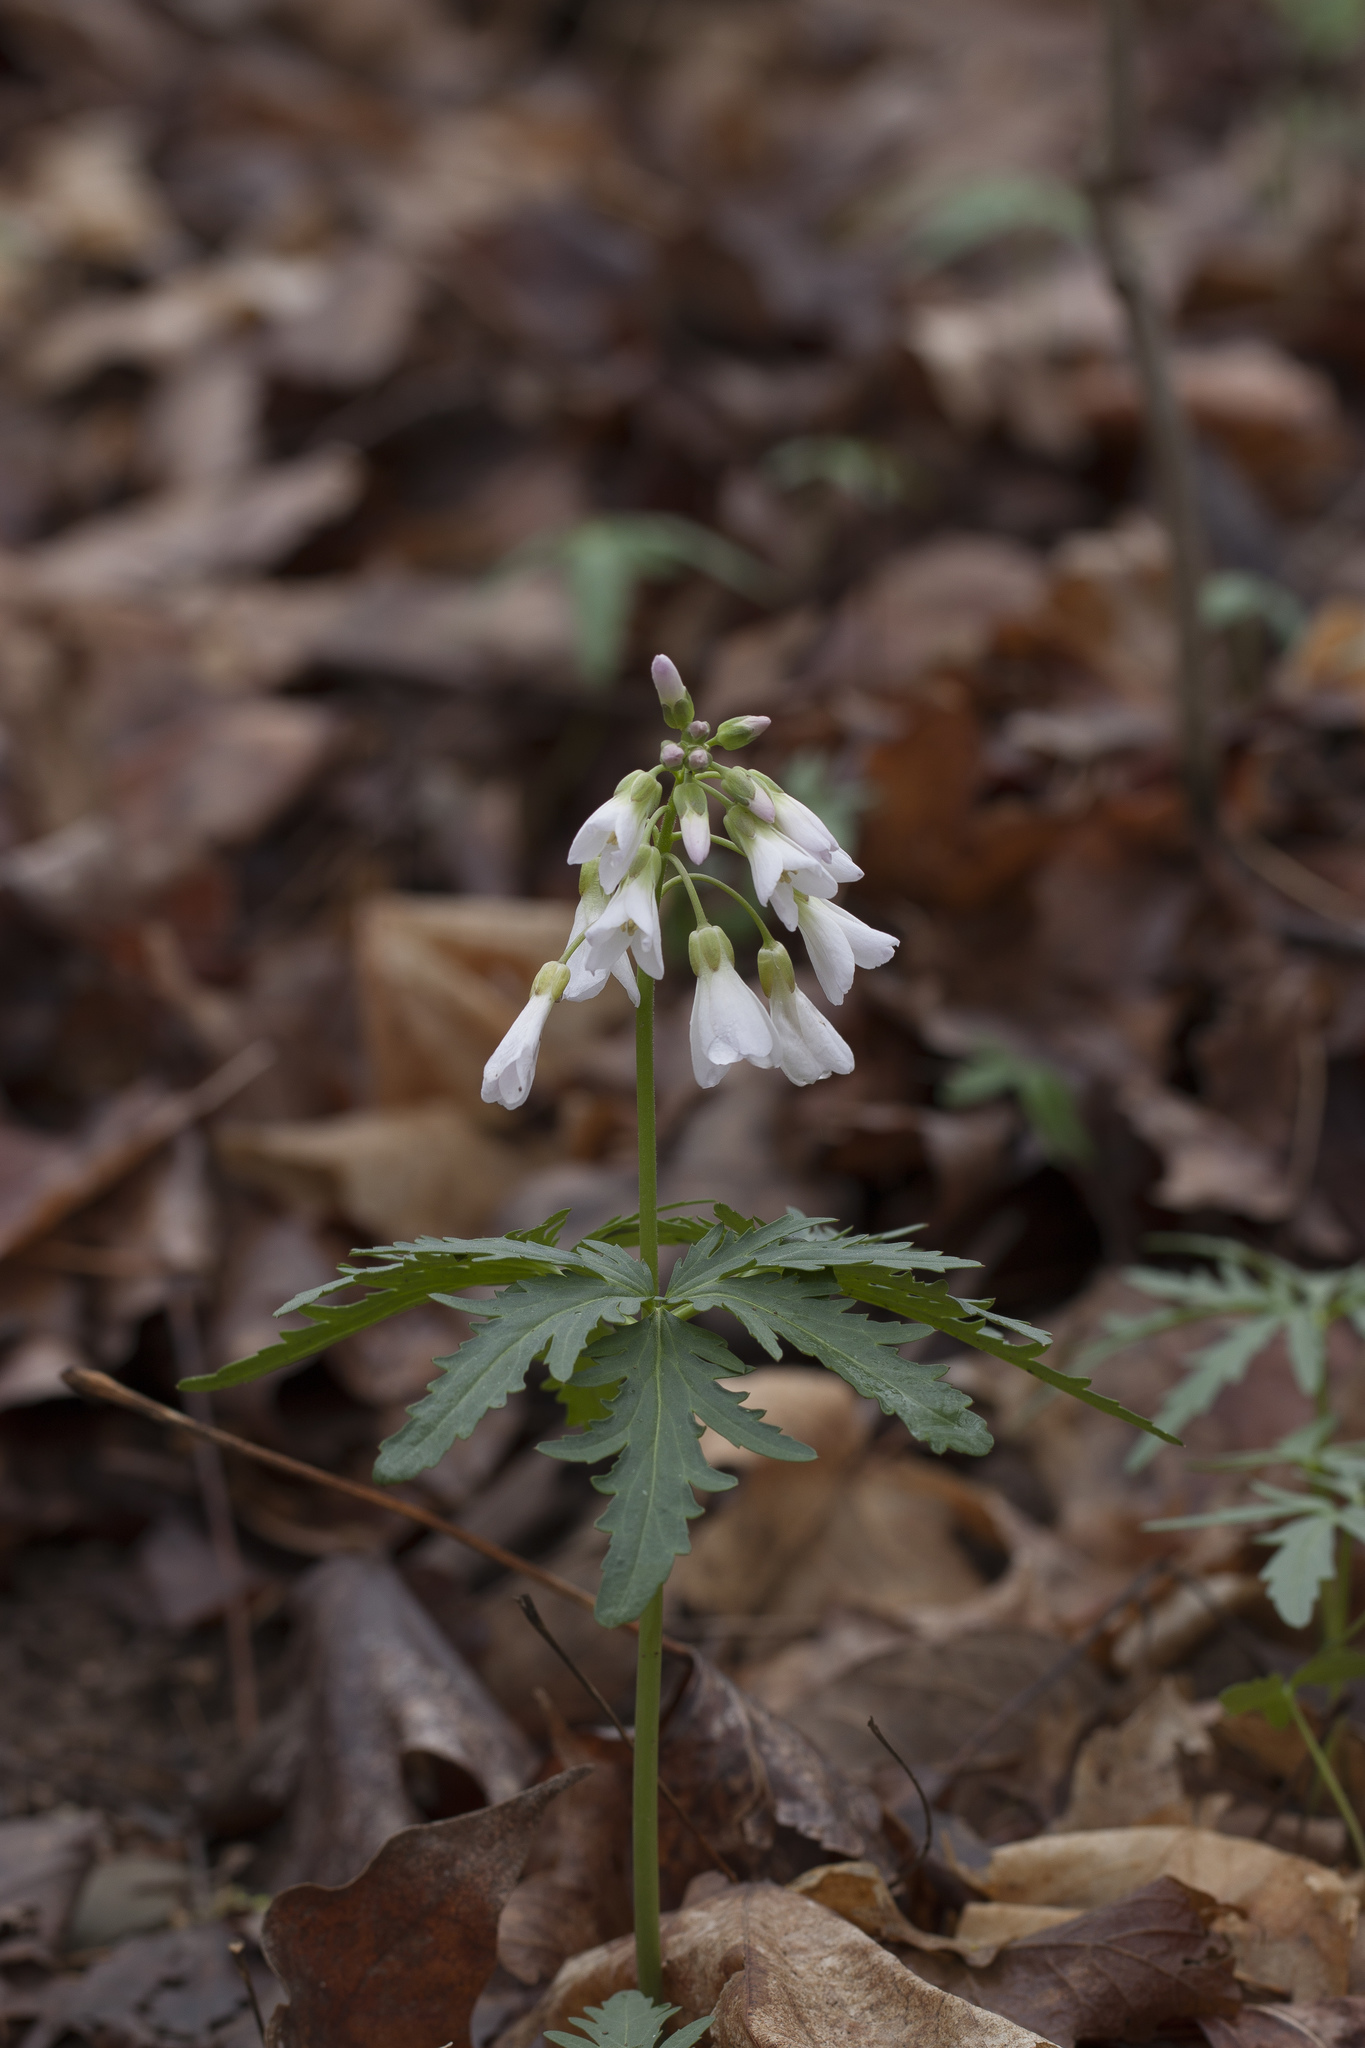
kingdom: Plantae
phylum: Tracheophyta
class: Magnoliopsida
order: Brassicales
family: Brassicaceae
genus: Cardamine
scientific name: Cardamine concatenata
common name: Cut-leaf toothcup
